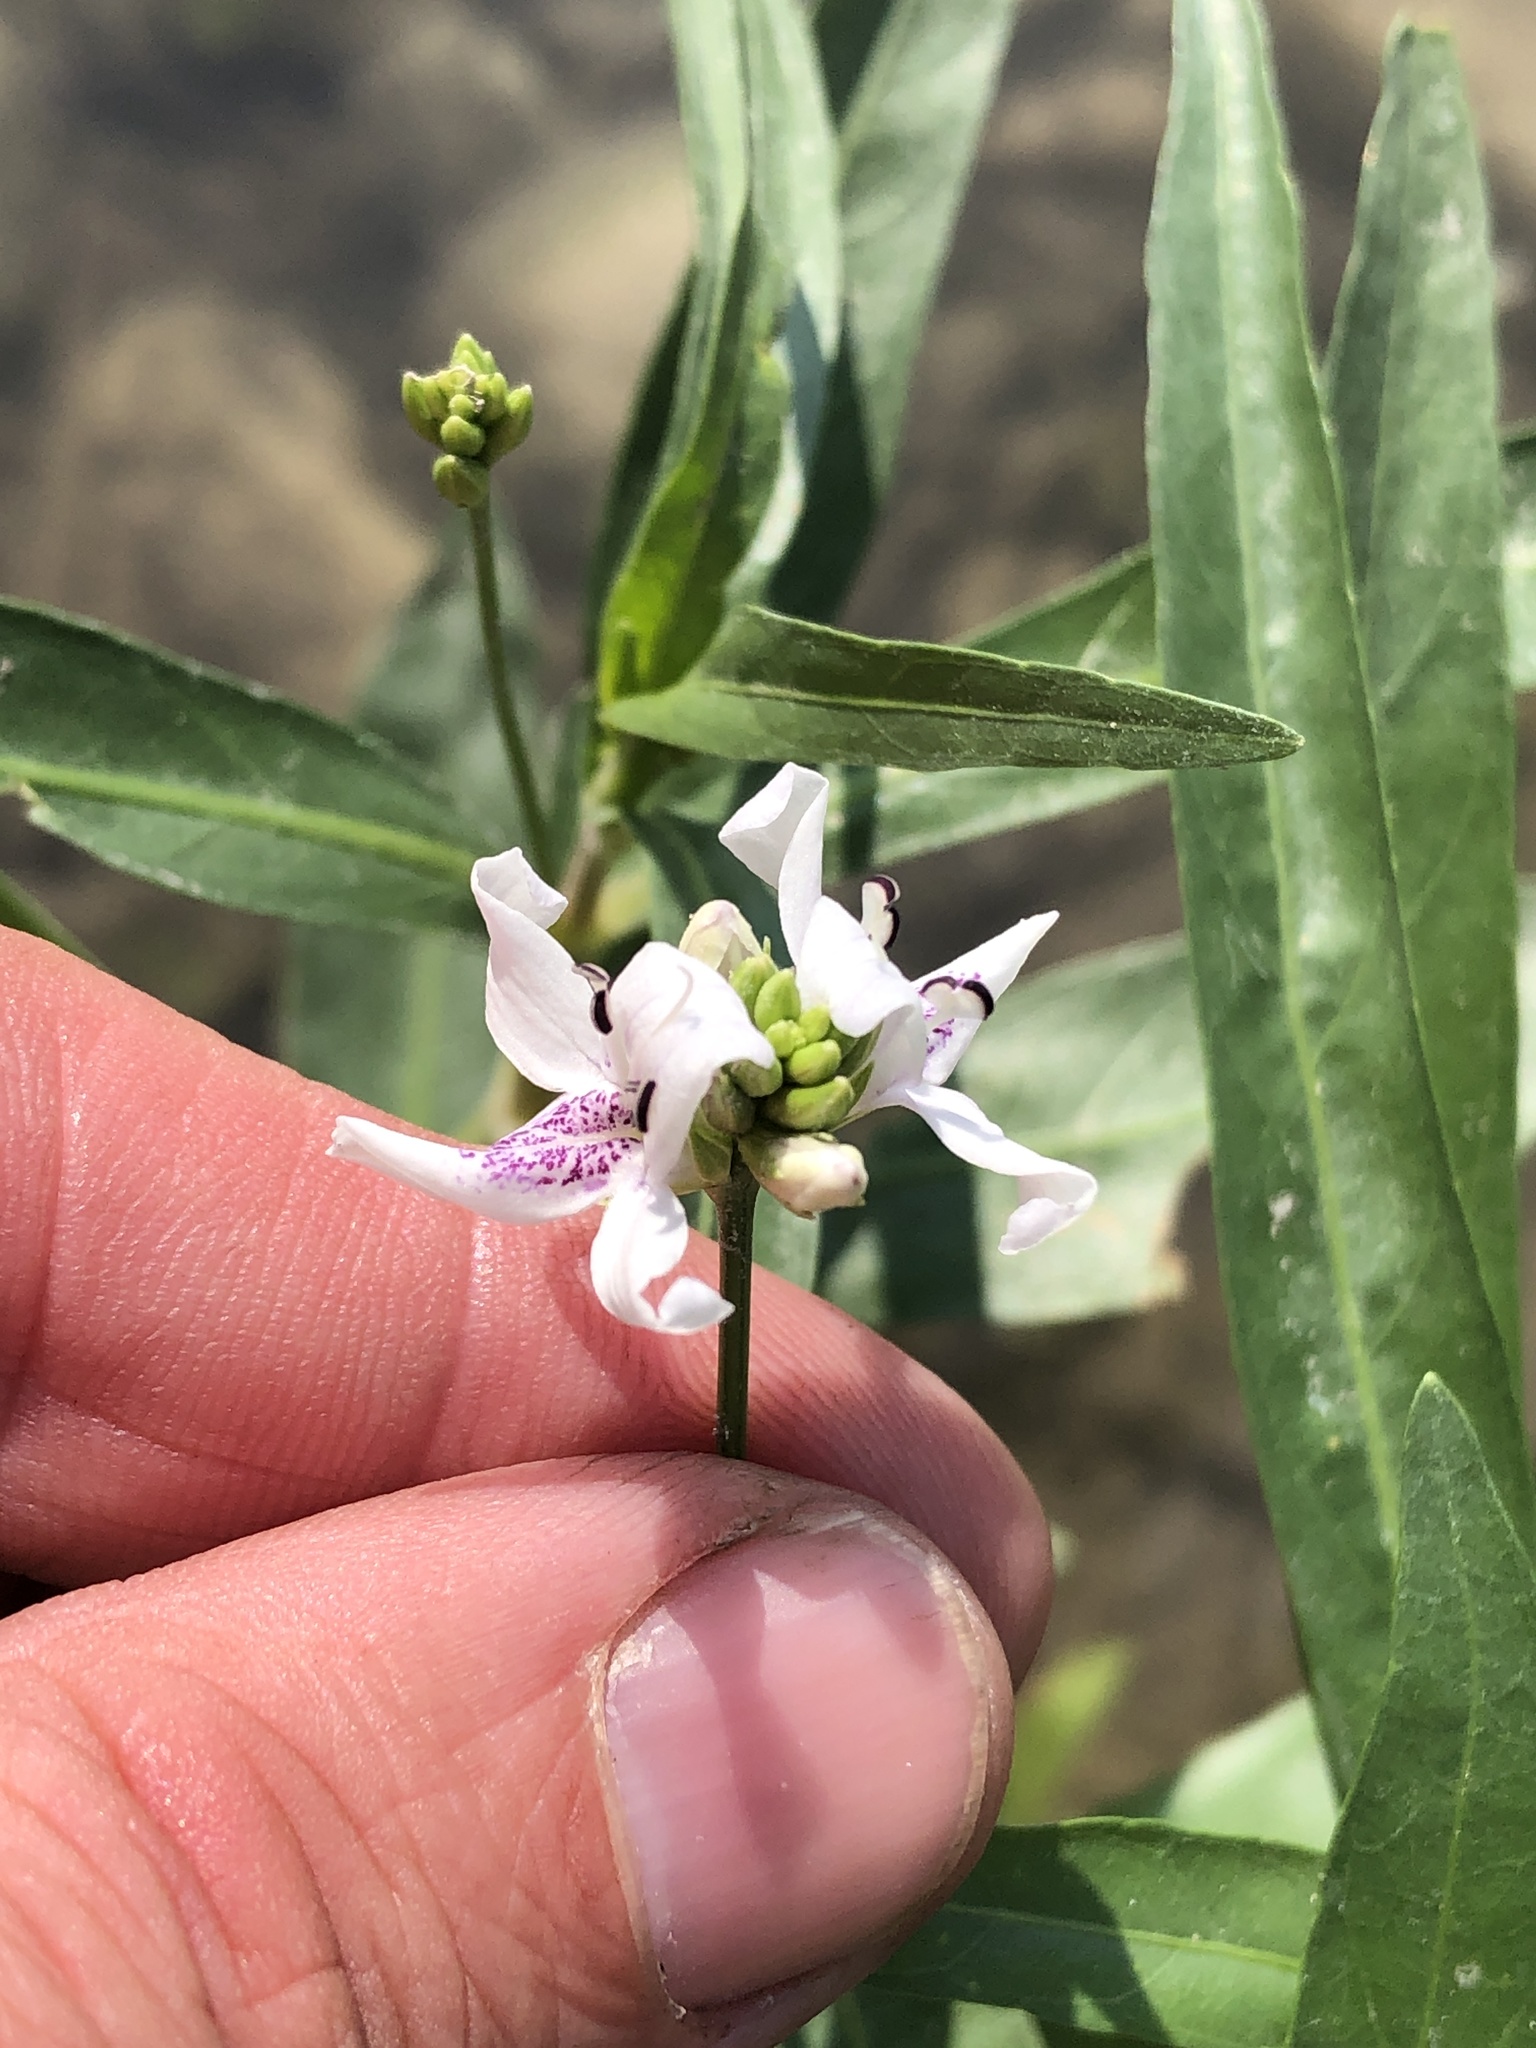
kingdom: Plantae
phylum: Tracheophyta
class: Magnoliopsida
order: Lamiales
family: Acanthaceae
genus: Dianthera
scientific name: Dianthera americana
